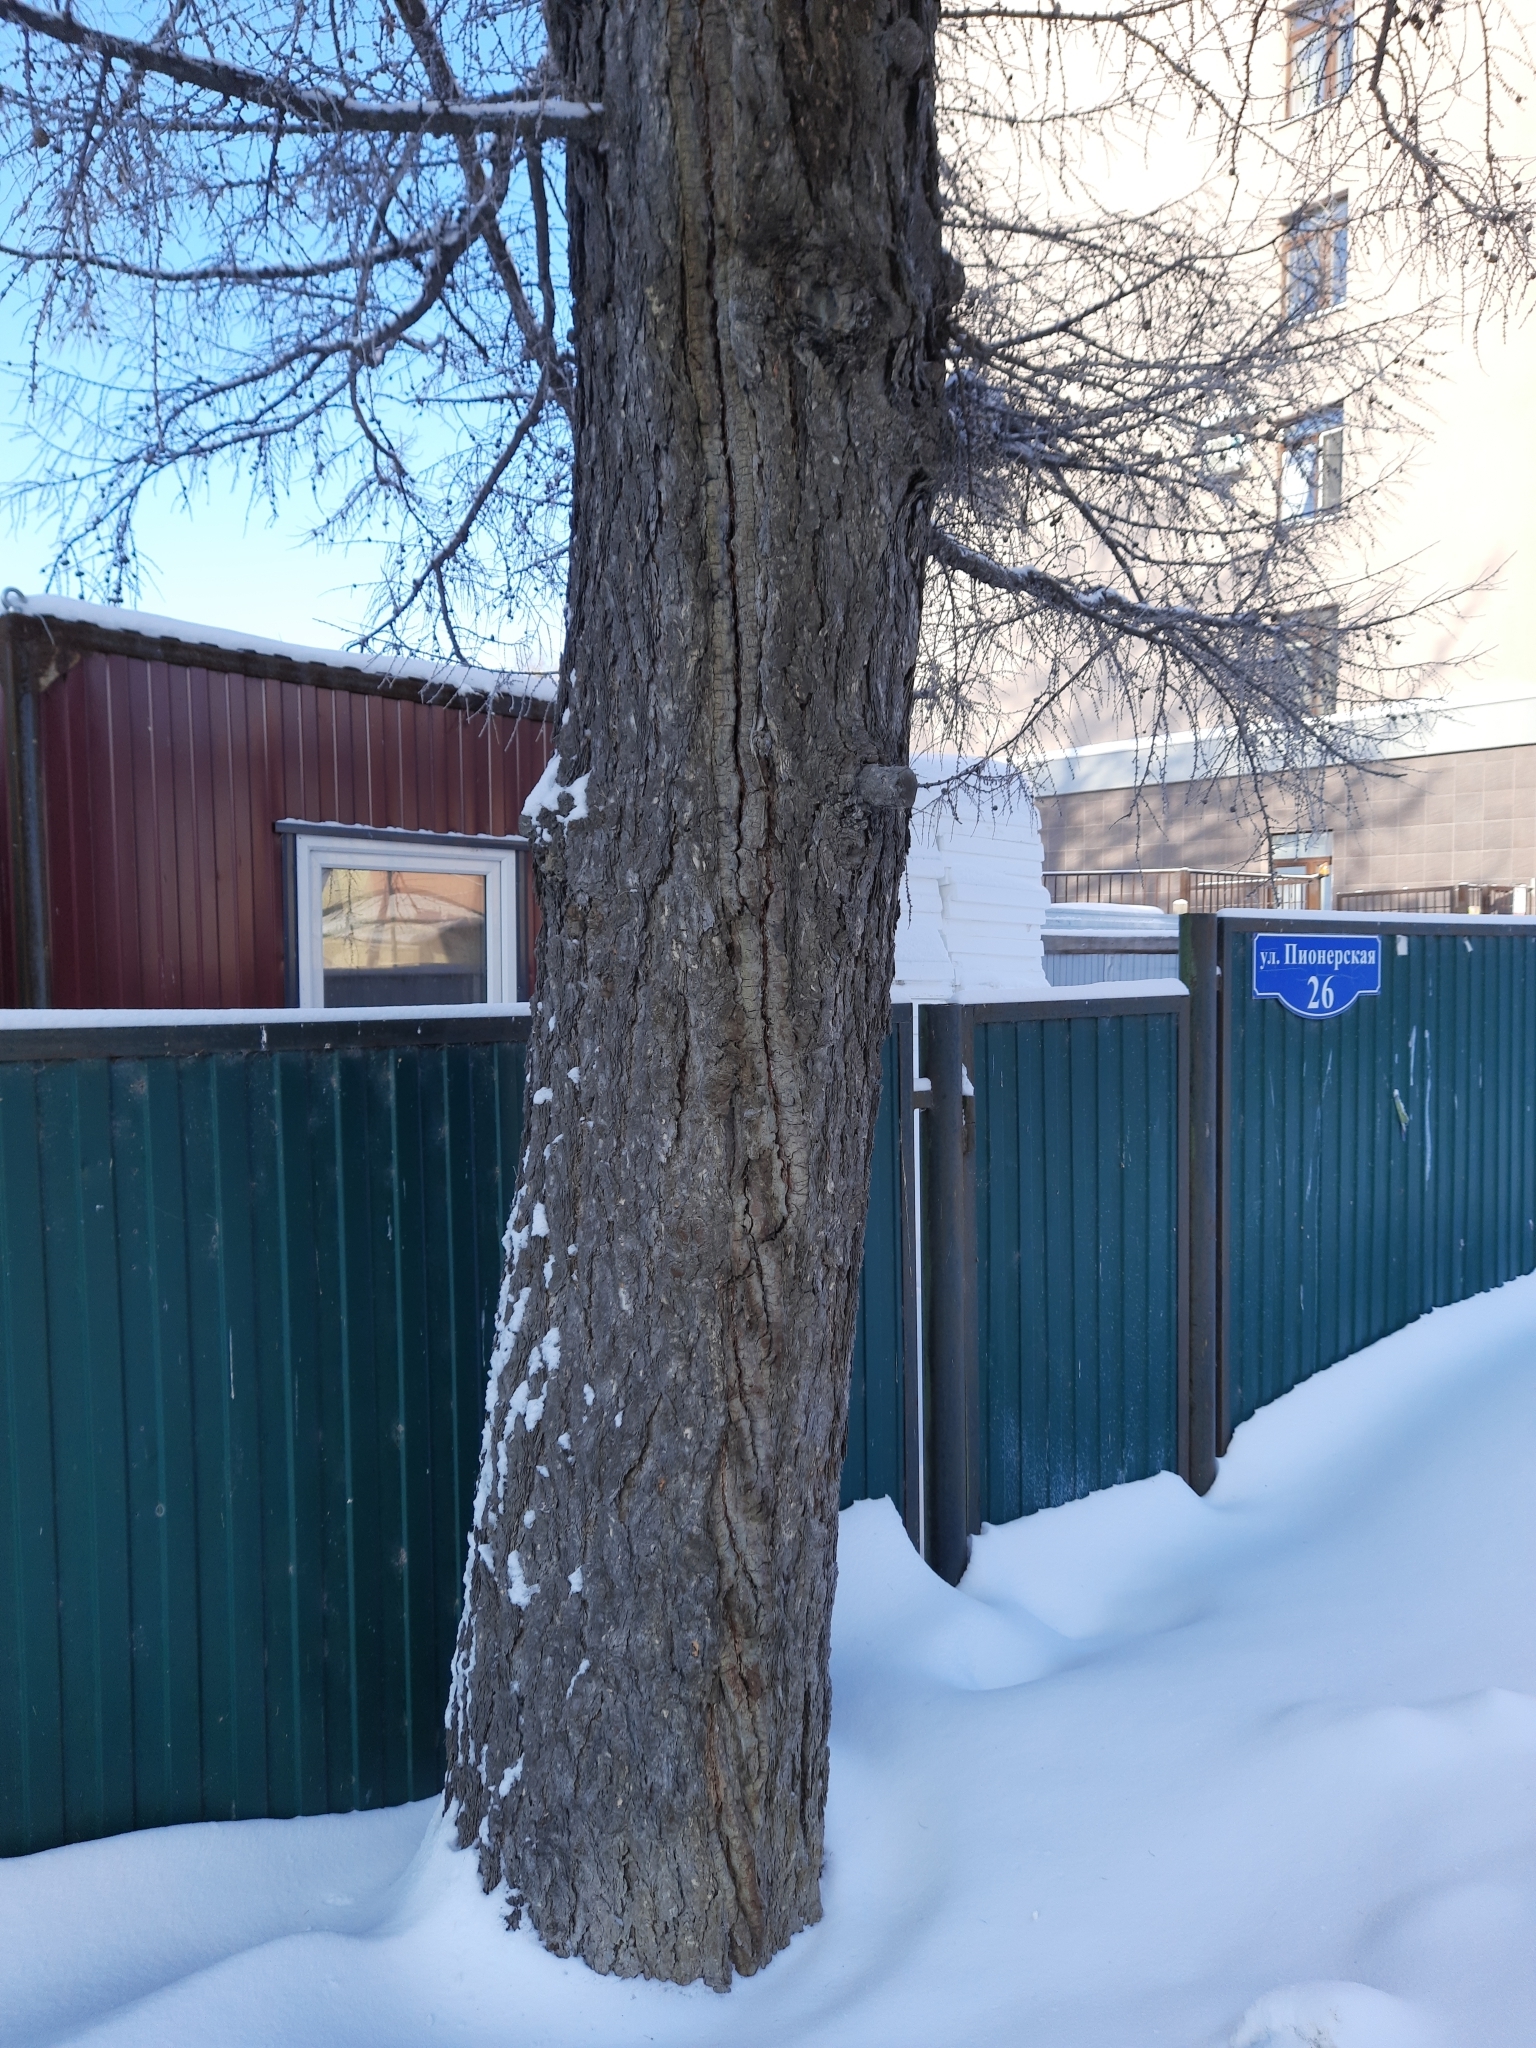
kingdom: Plantae
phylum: Tracheophyta
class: Pinopsida
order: Pinales
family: Pinaceae
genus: Larix
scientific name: Larix sibirica
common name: Siberian larch
